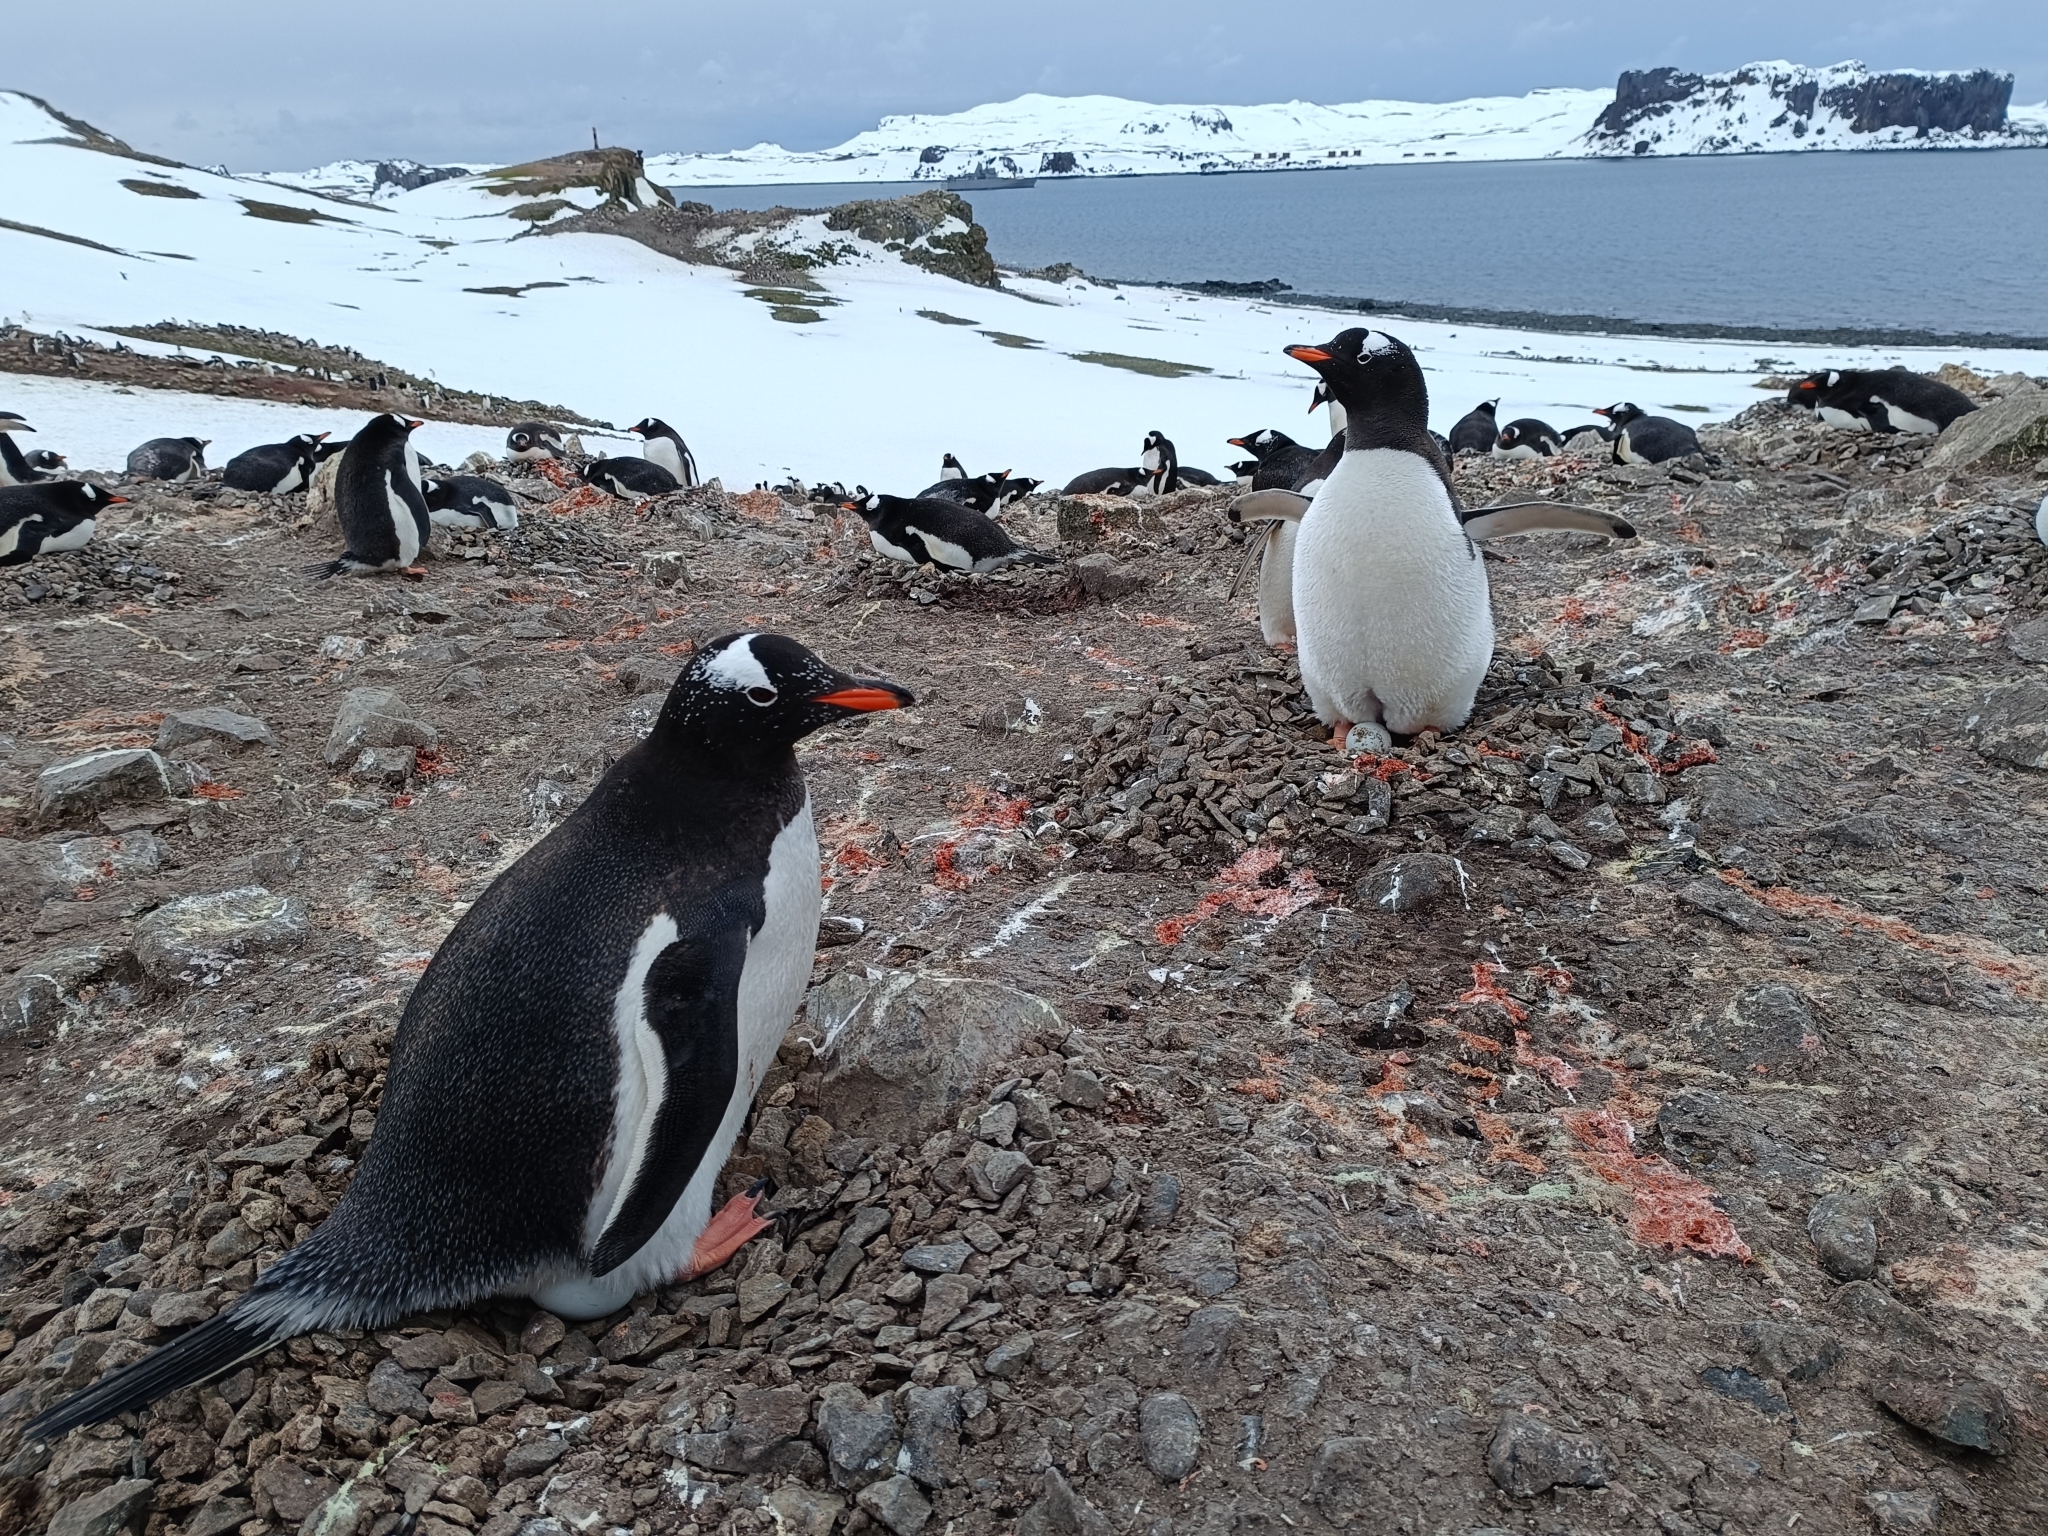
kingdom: Animalia
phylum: Chordata
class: Aves
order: Sphenisciformes
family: Spheniscidae
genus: Pygoscelis
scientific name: Pygoscelis papua
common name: Gentoo penguin
